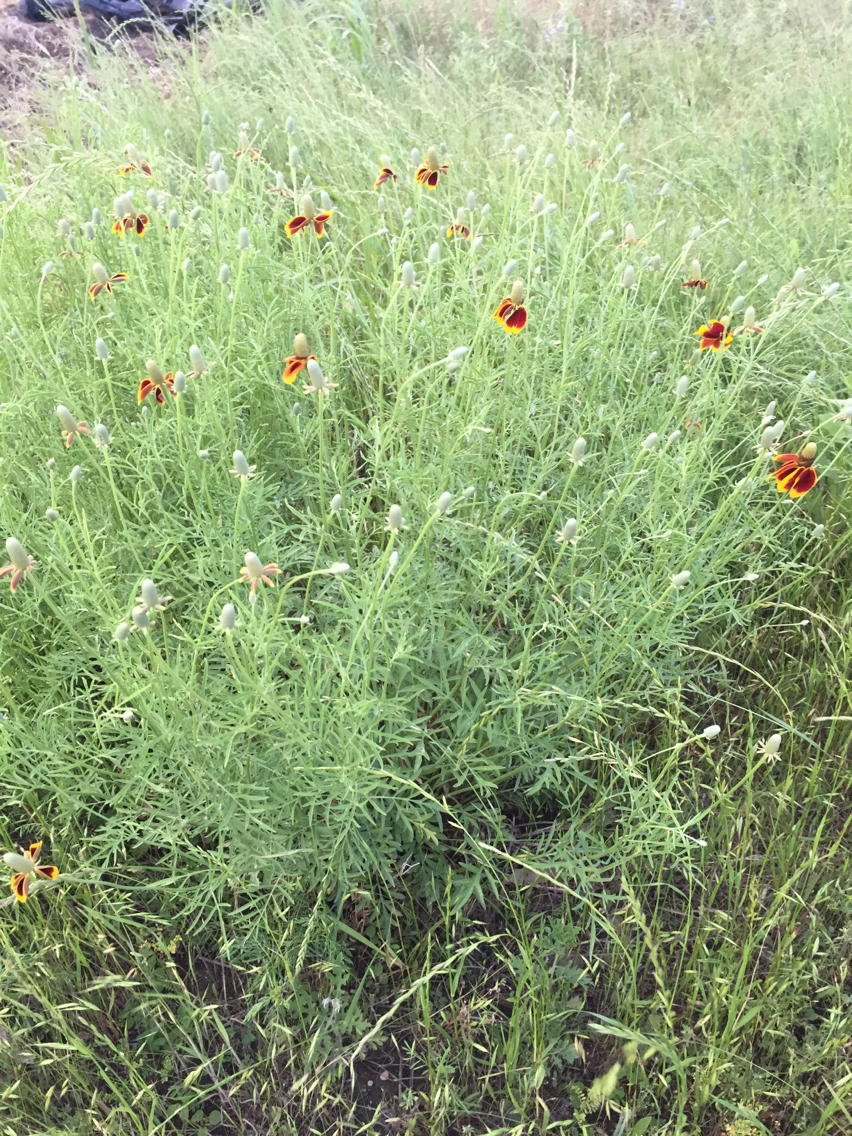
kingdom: Plantae
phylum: Tracheophyta
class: Magnoliopsida
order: Asterales
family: Asteraceae
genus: Ratibida
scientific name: Ratibida columnifera
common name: Prairie coneflower
